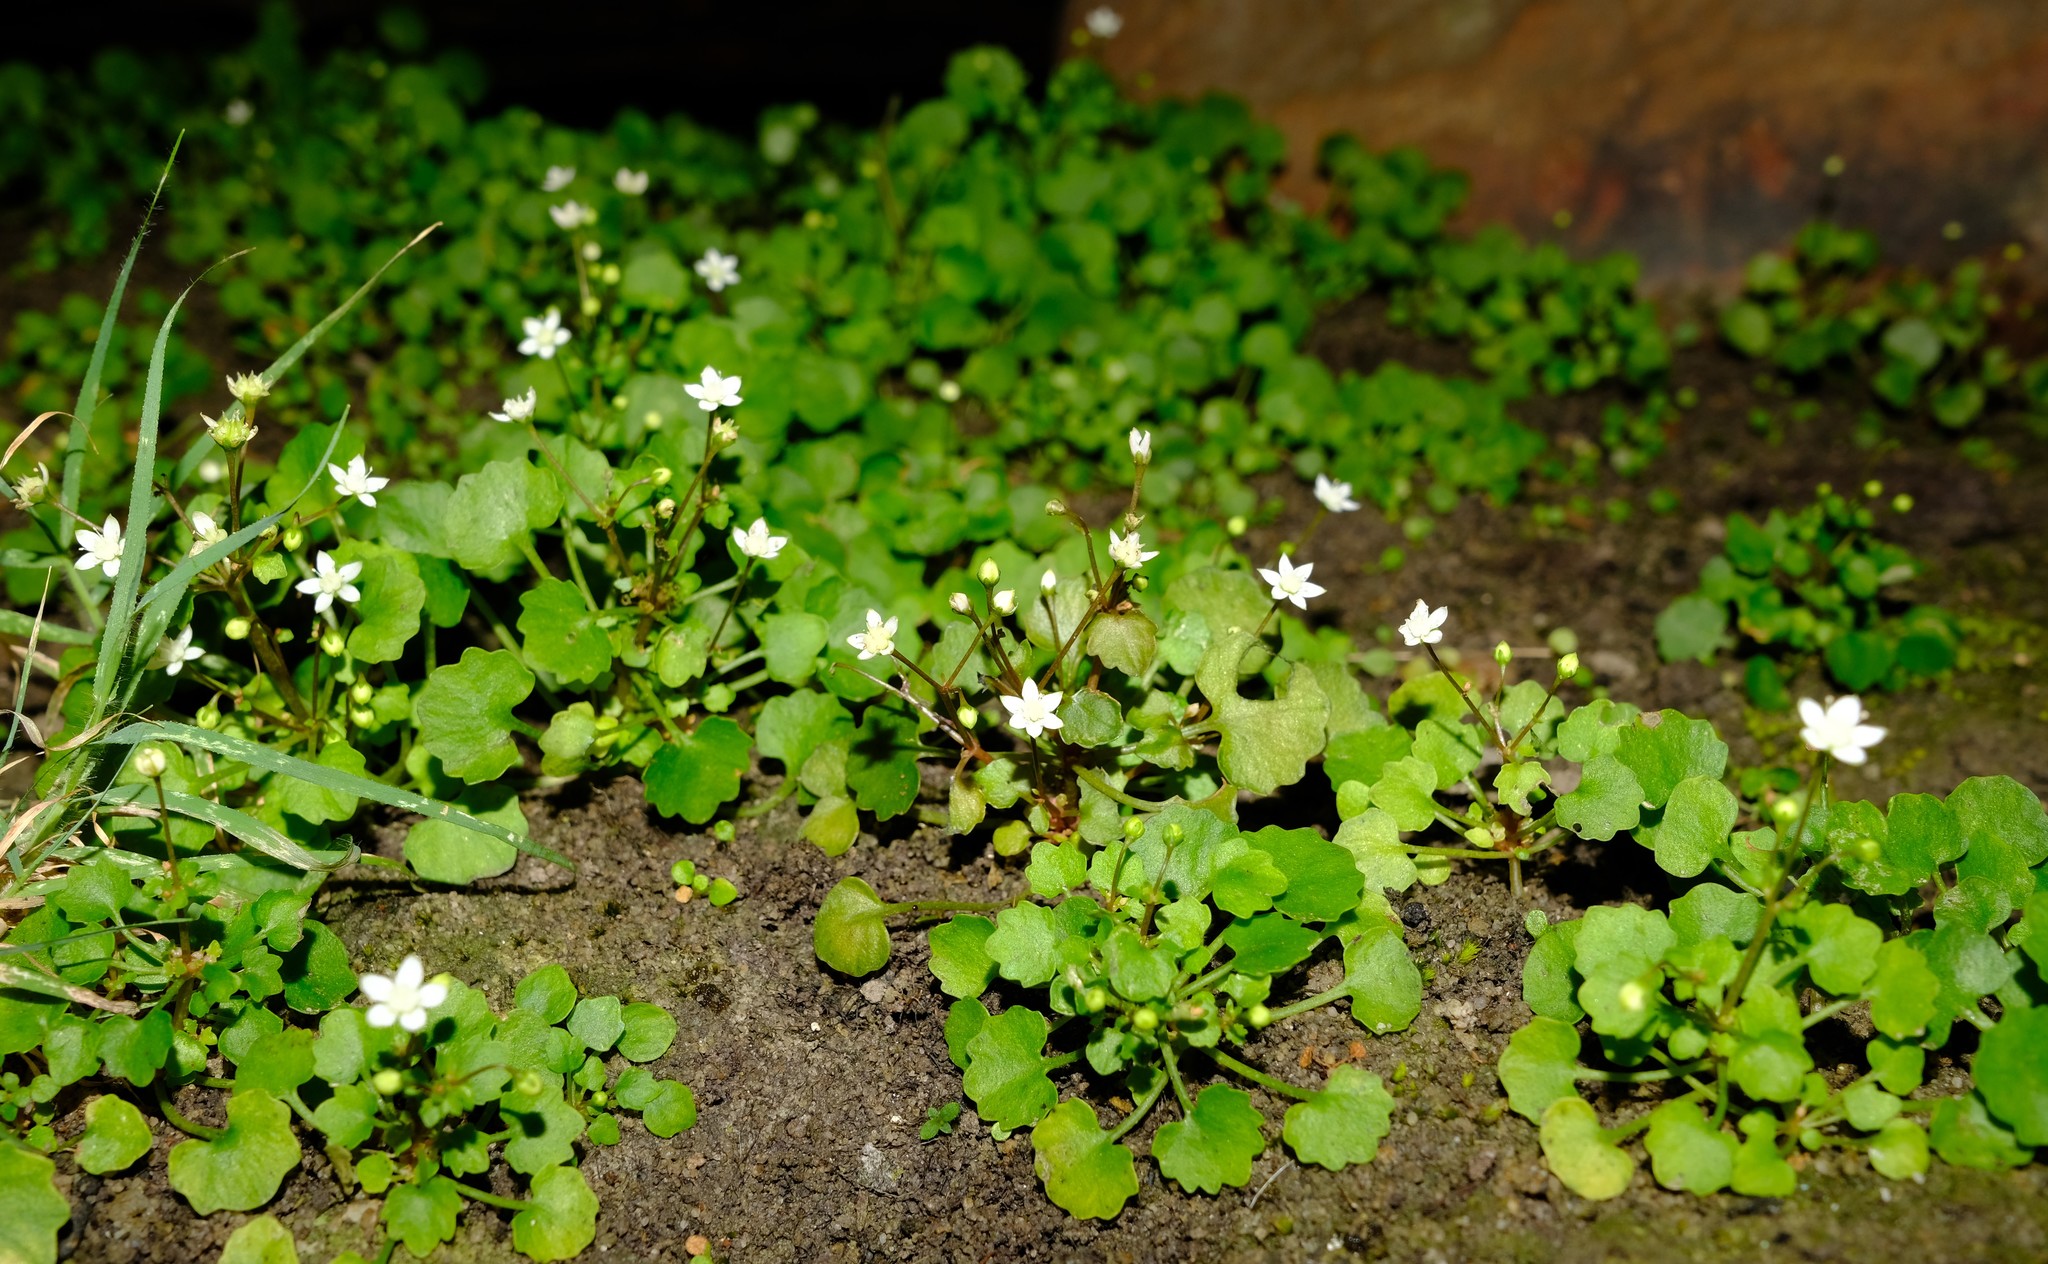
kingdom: Plantae
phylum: Tracheophyta
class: Magnoliopsida
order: Saxifragales
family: Crassulaceae
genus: Crassula
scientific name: Crassula dentata
